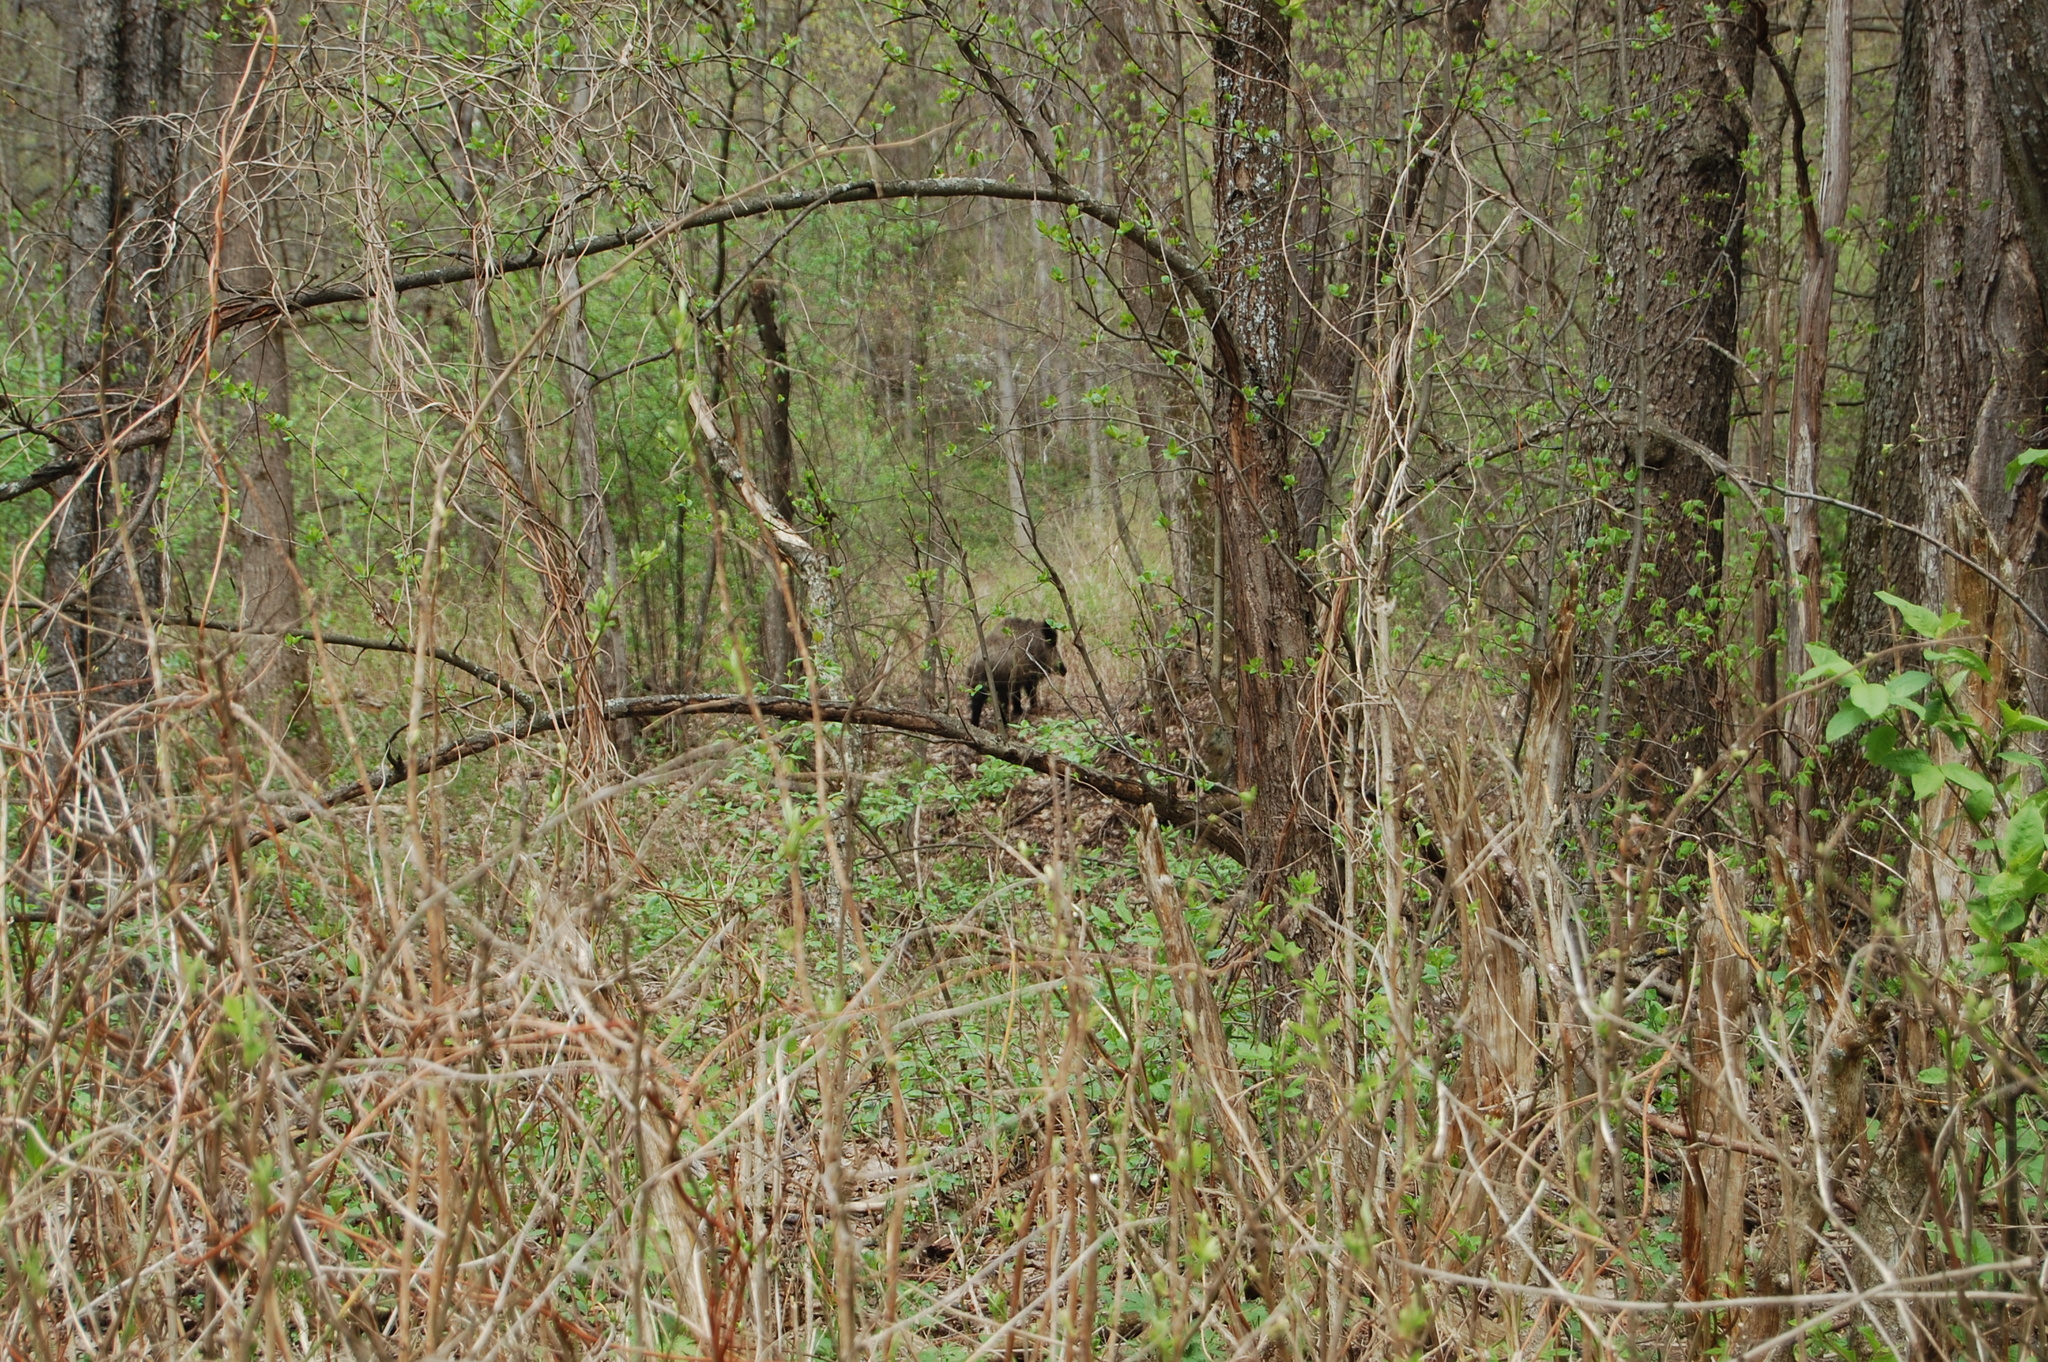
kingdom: Animalia
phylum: Chordata
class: Mammalia
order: Artiodactyla
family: Suidae
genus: Sus
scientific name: Sus scrofa
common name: Wild boar
